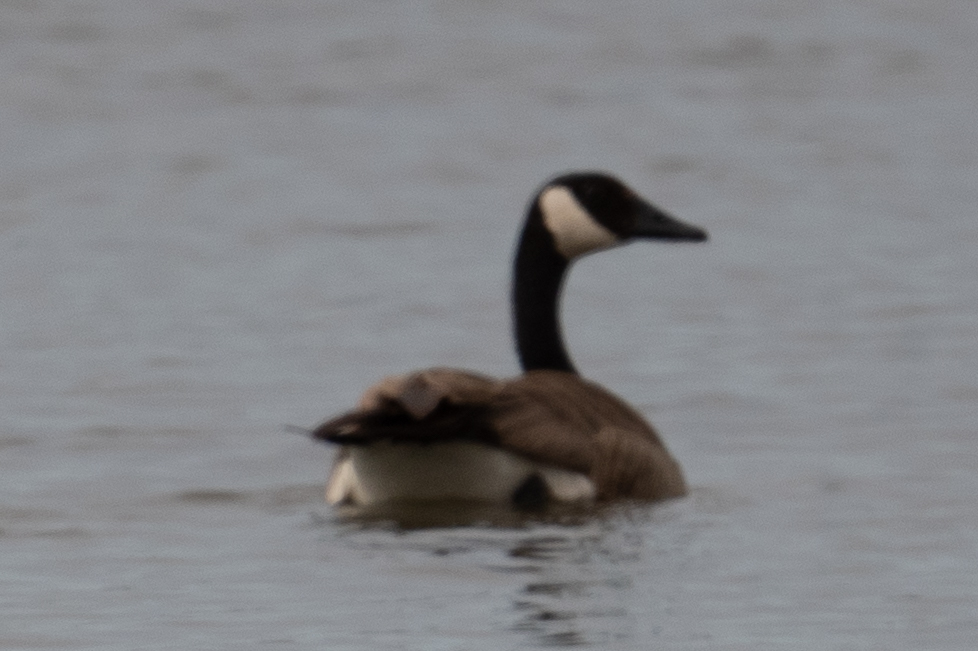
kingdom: Animalia
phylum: Chordata
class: Aves
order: Anseriformes
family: Anatidae
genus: Branta
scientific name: Branta canadensis
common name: Canada goose
